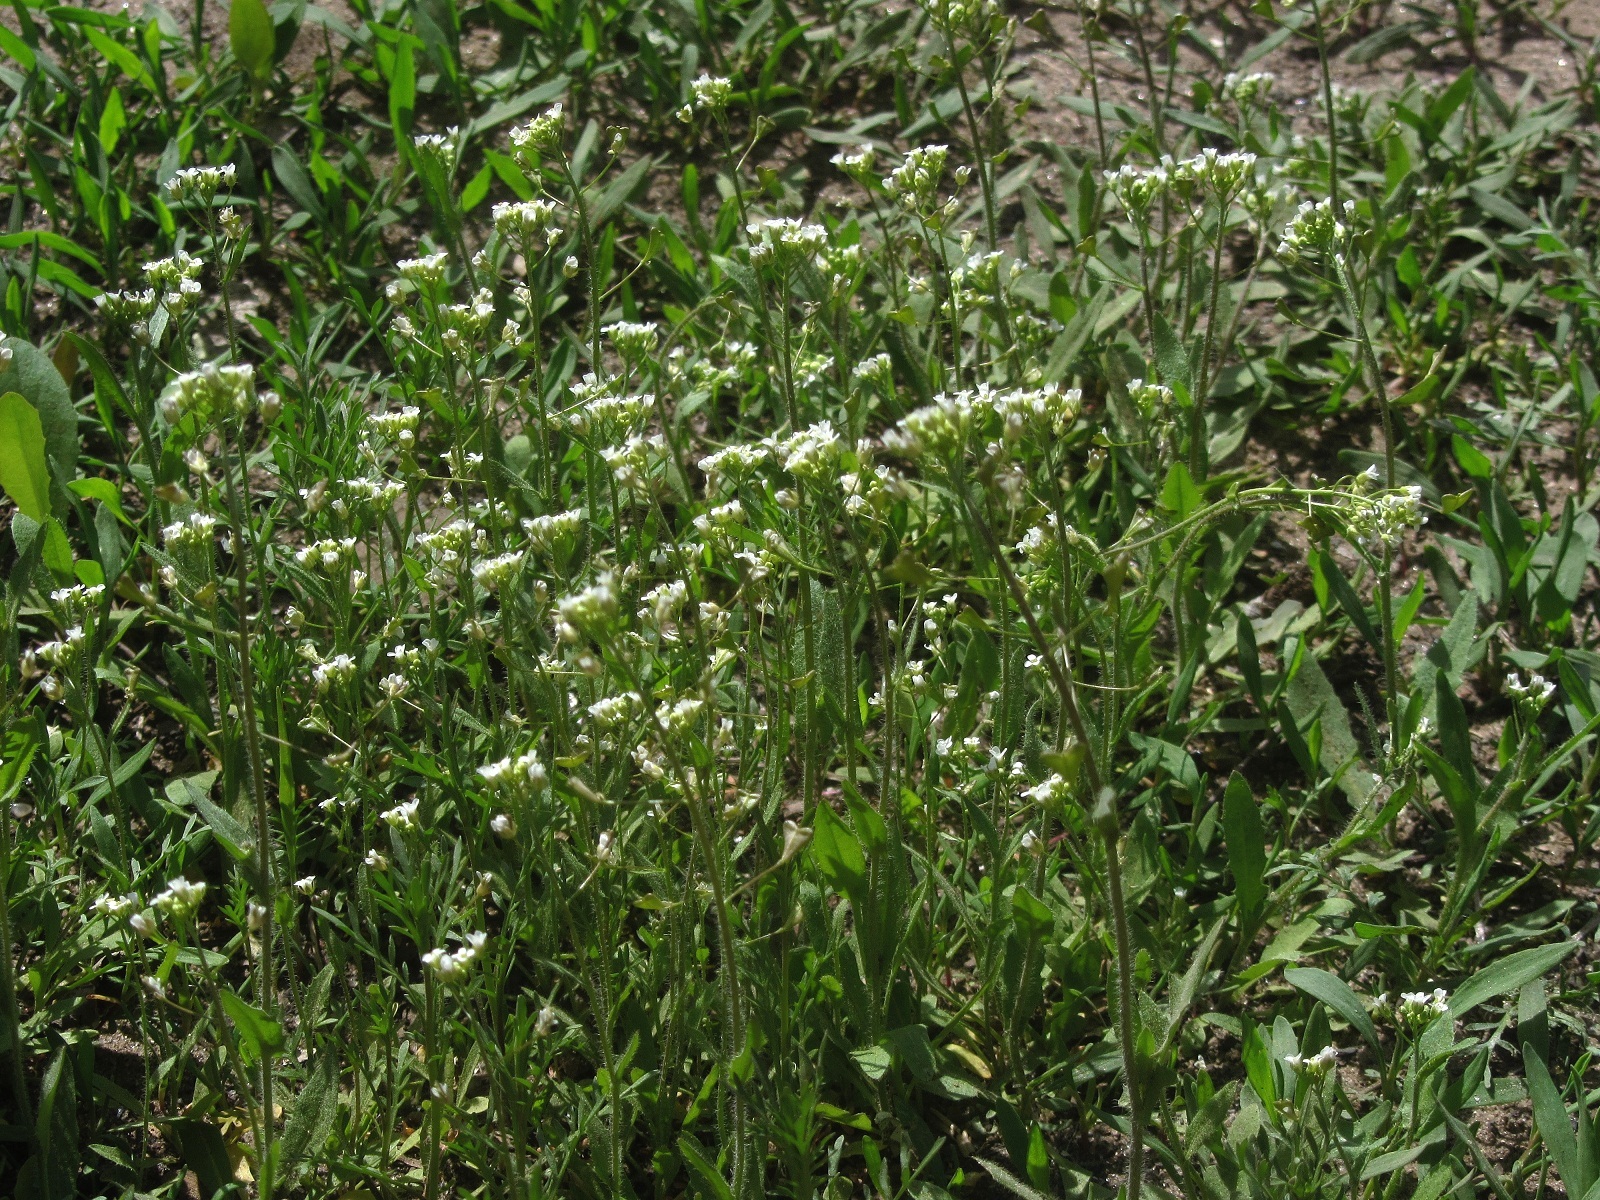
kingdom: Plantae
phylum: Tracheophyta
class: Magnoliopsida
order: Brassicales
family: Brassicaceae
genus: Capsella
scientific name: Capsella bursa-pastoris
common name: Shepherd's purse
